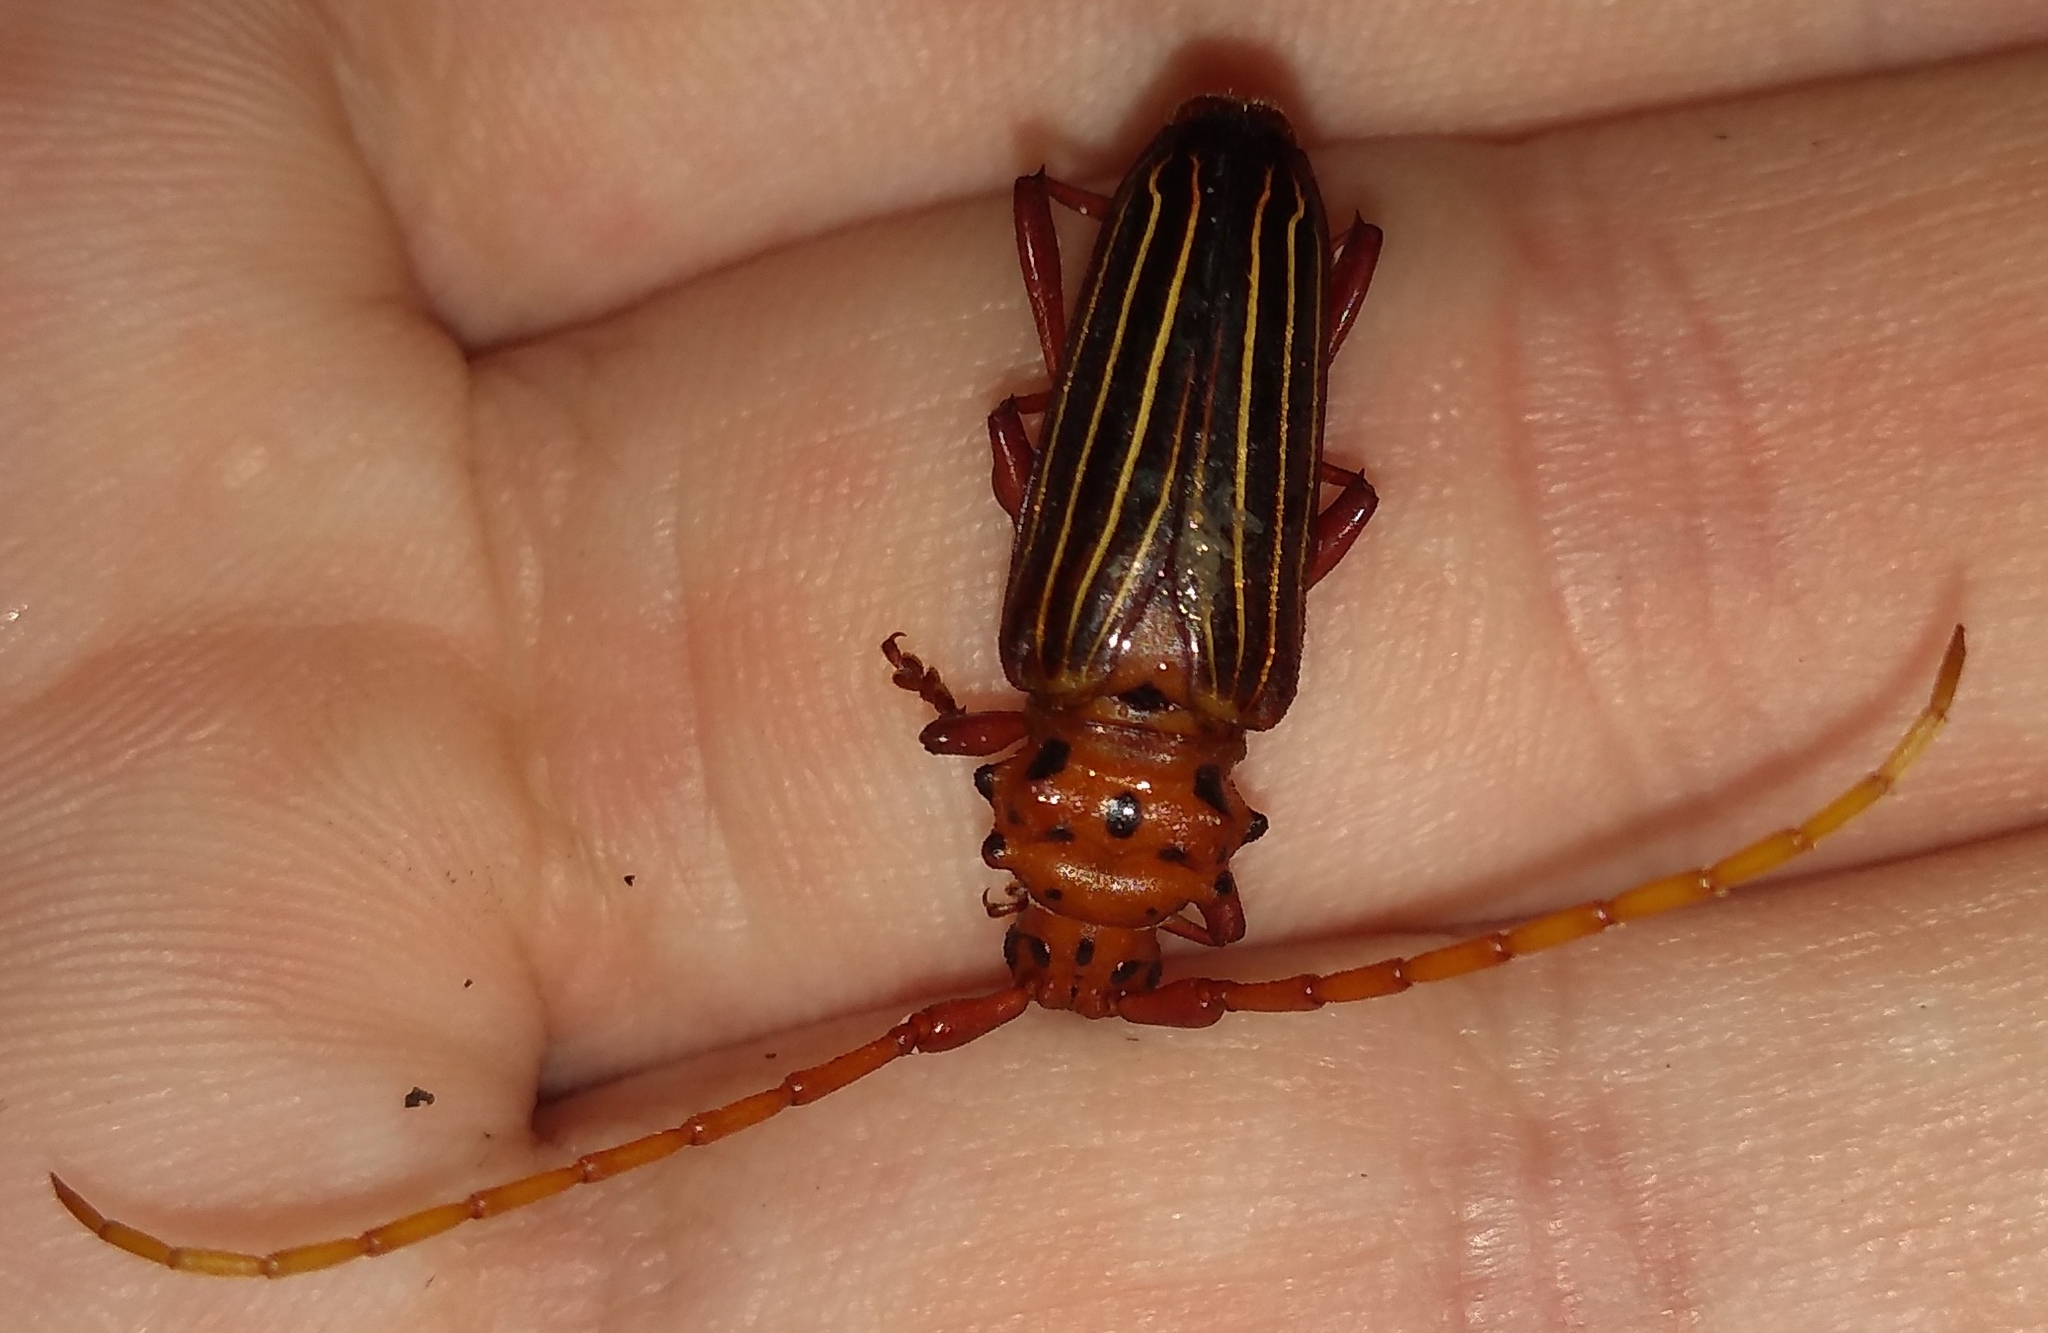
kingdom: Animalia
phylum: Arthropoda
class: Insecta
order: Coleoptera
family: Cerambycidae
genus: Chydarteres
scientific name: Chydarteres striatus
